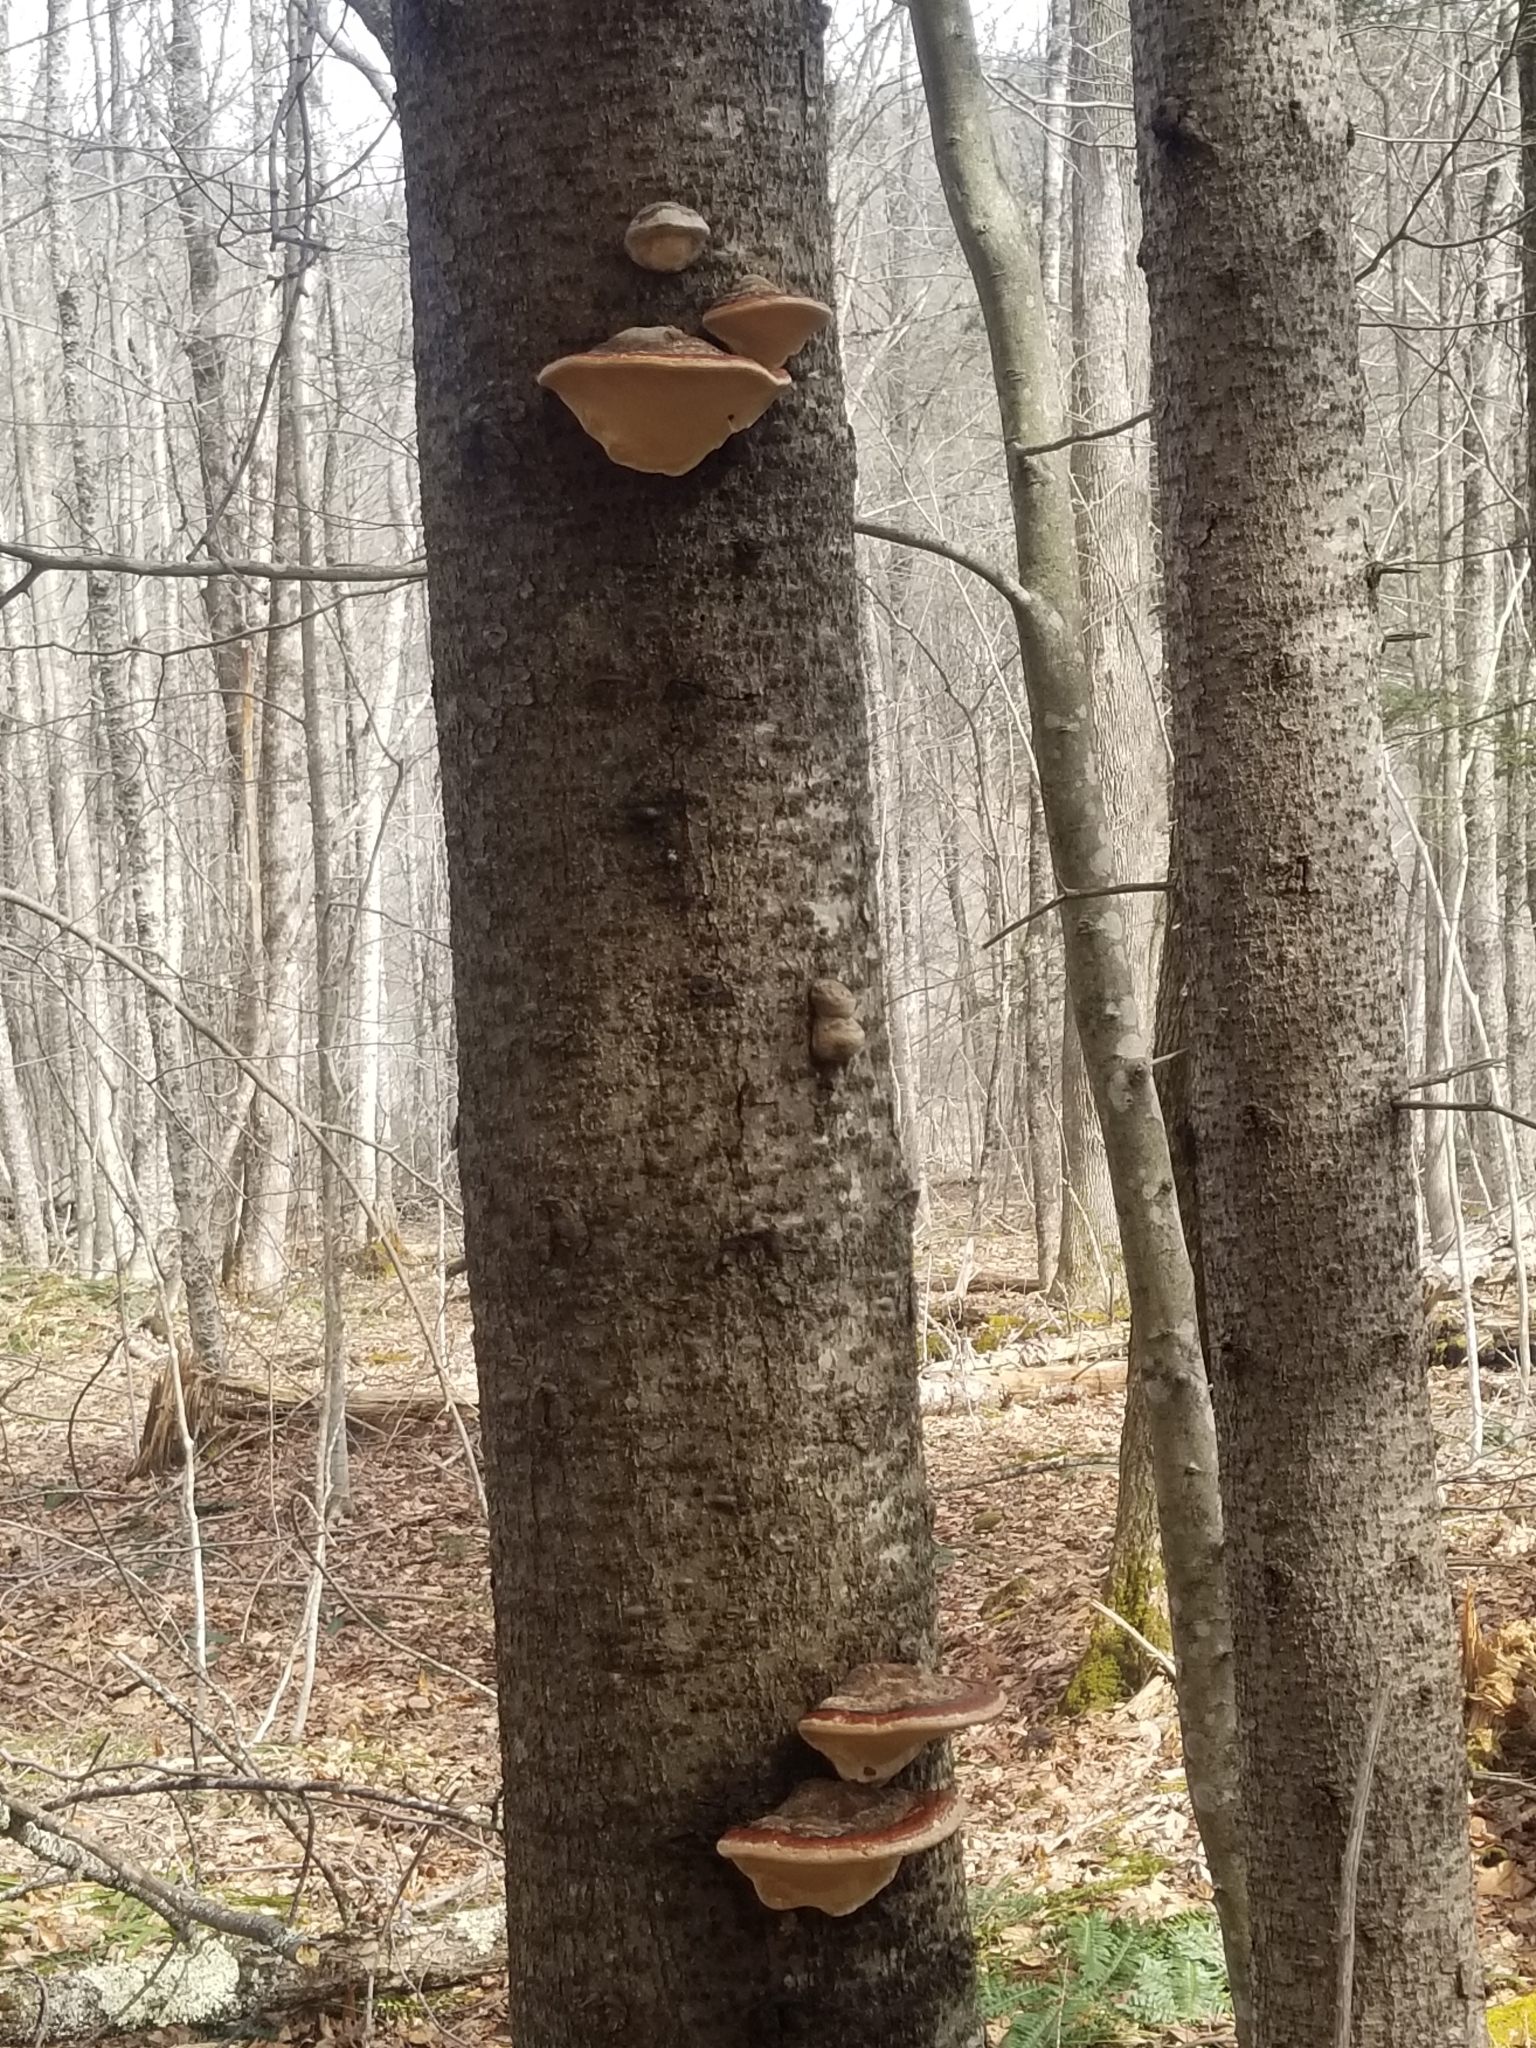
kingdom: Fungi
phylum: Basidiomycota
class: Agaricomycetes
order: Polyporales
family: Fomitopsidaceae
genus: Fomitopsis
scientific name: Fomitopsis mounceae
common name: Northern red belt
